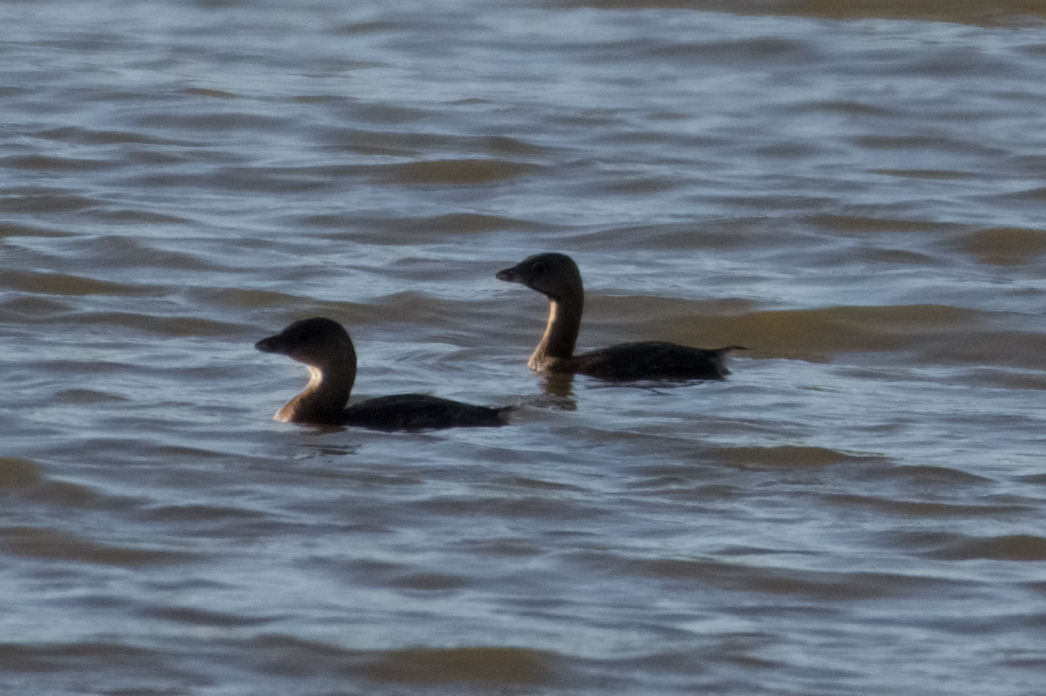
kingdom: Animalia
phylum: Chordata
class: Aves
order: Podicipediformes
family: Podicipedidae
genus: Podilymbus
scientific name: Podilymbus podiceps
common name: Pied-billed grebe
